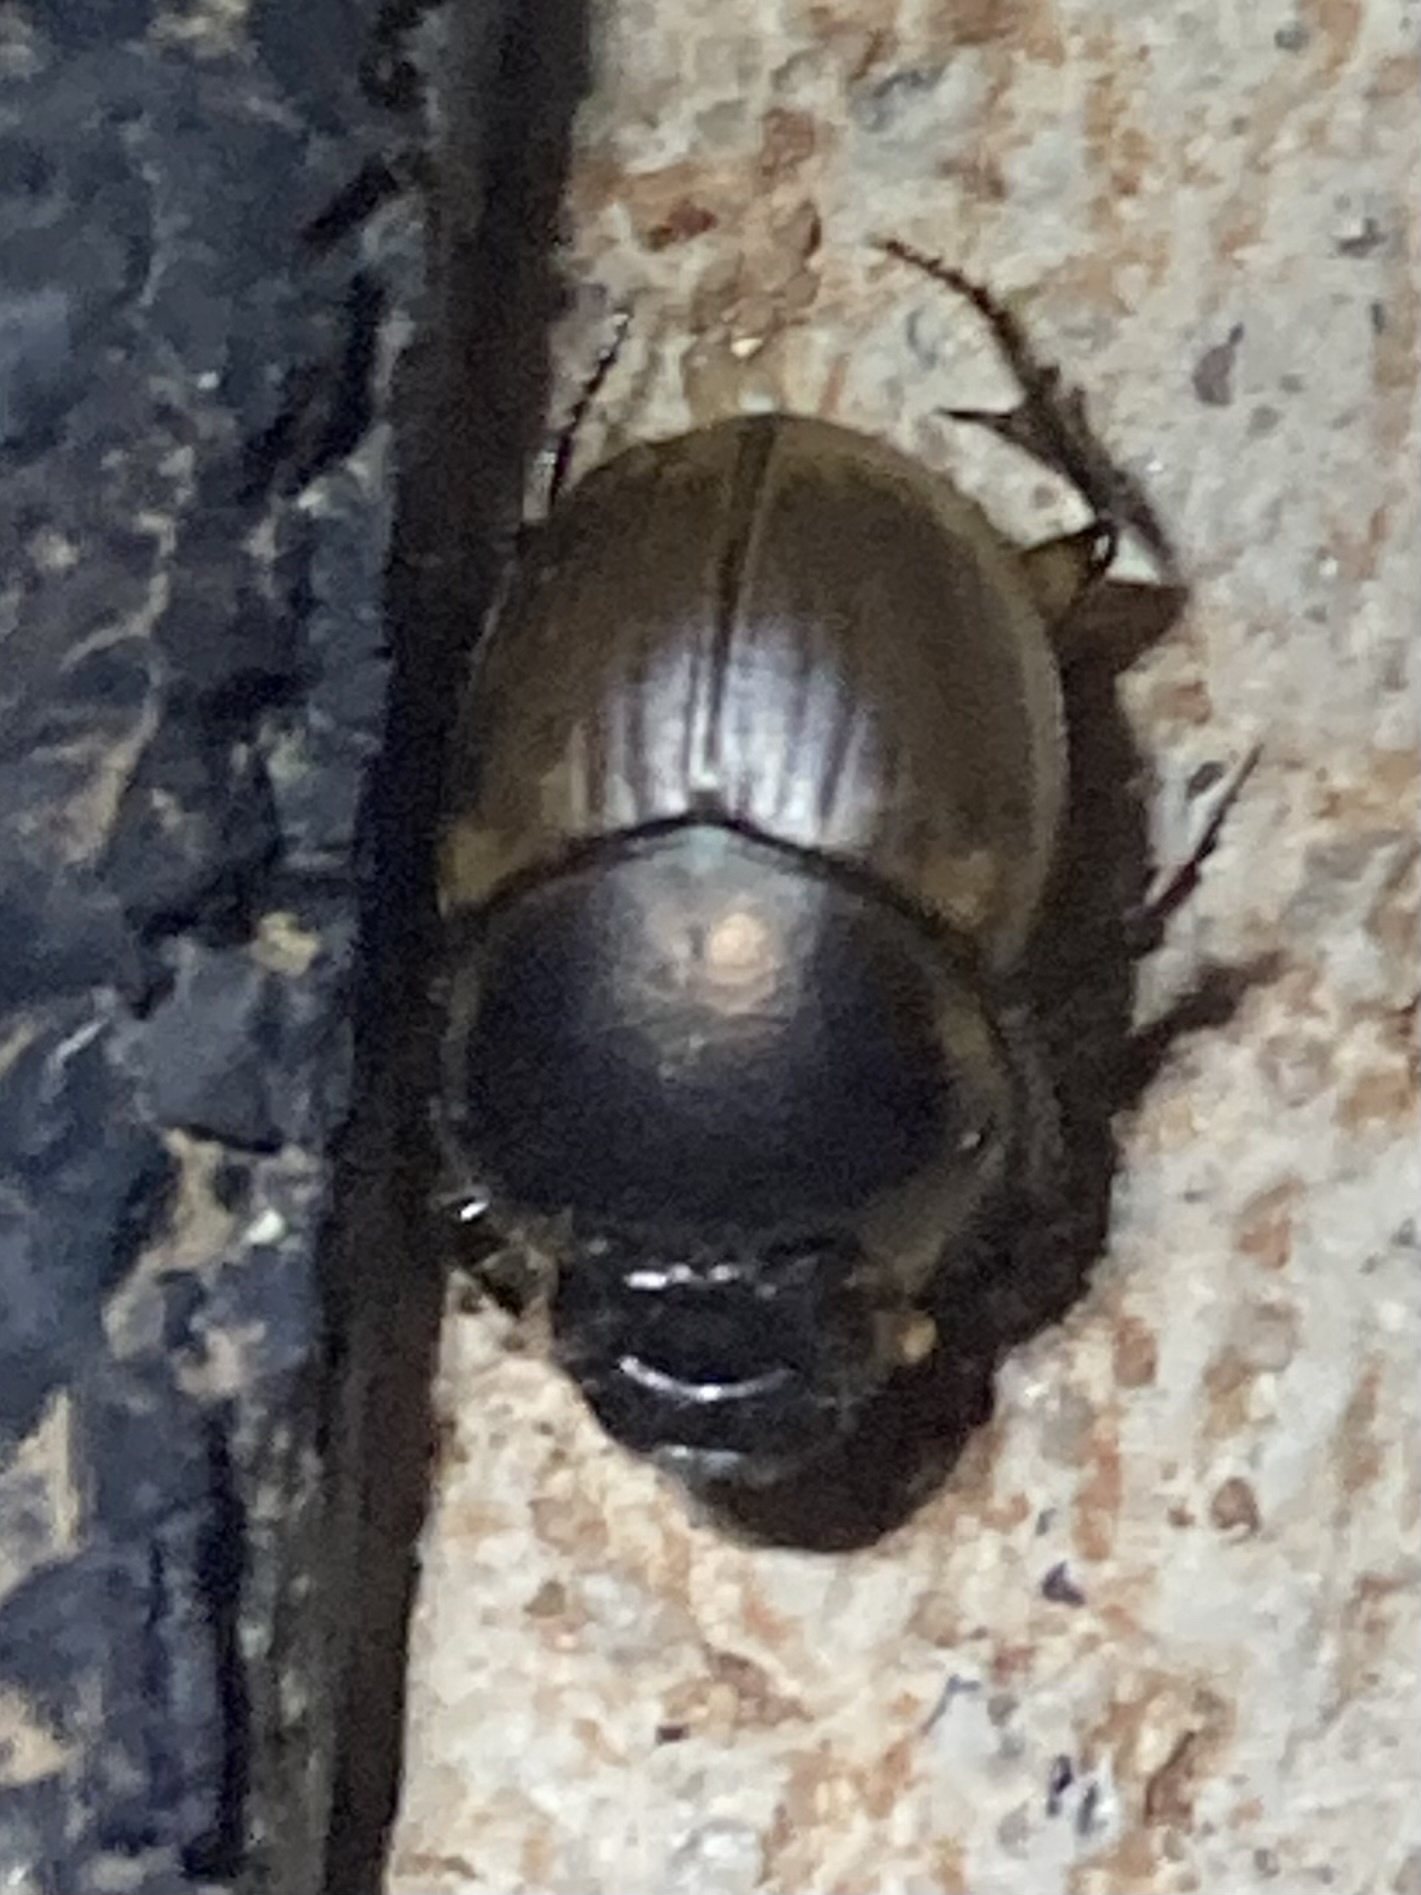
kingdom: Animalia
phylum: Arthropoda
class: Insecta
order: Coleoptera
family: Scarabaeidae
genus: Digitonthophagus
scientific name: Digitonthophagus gazella
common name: Brown dung beetle
